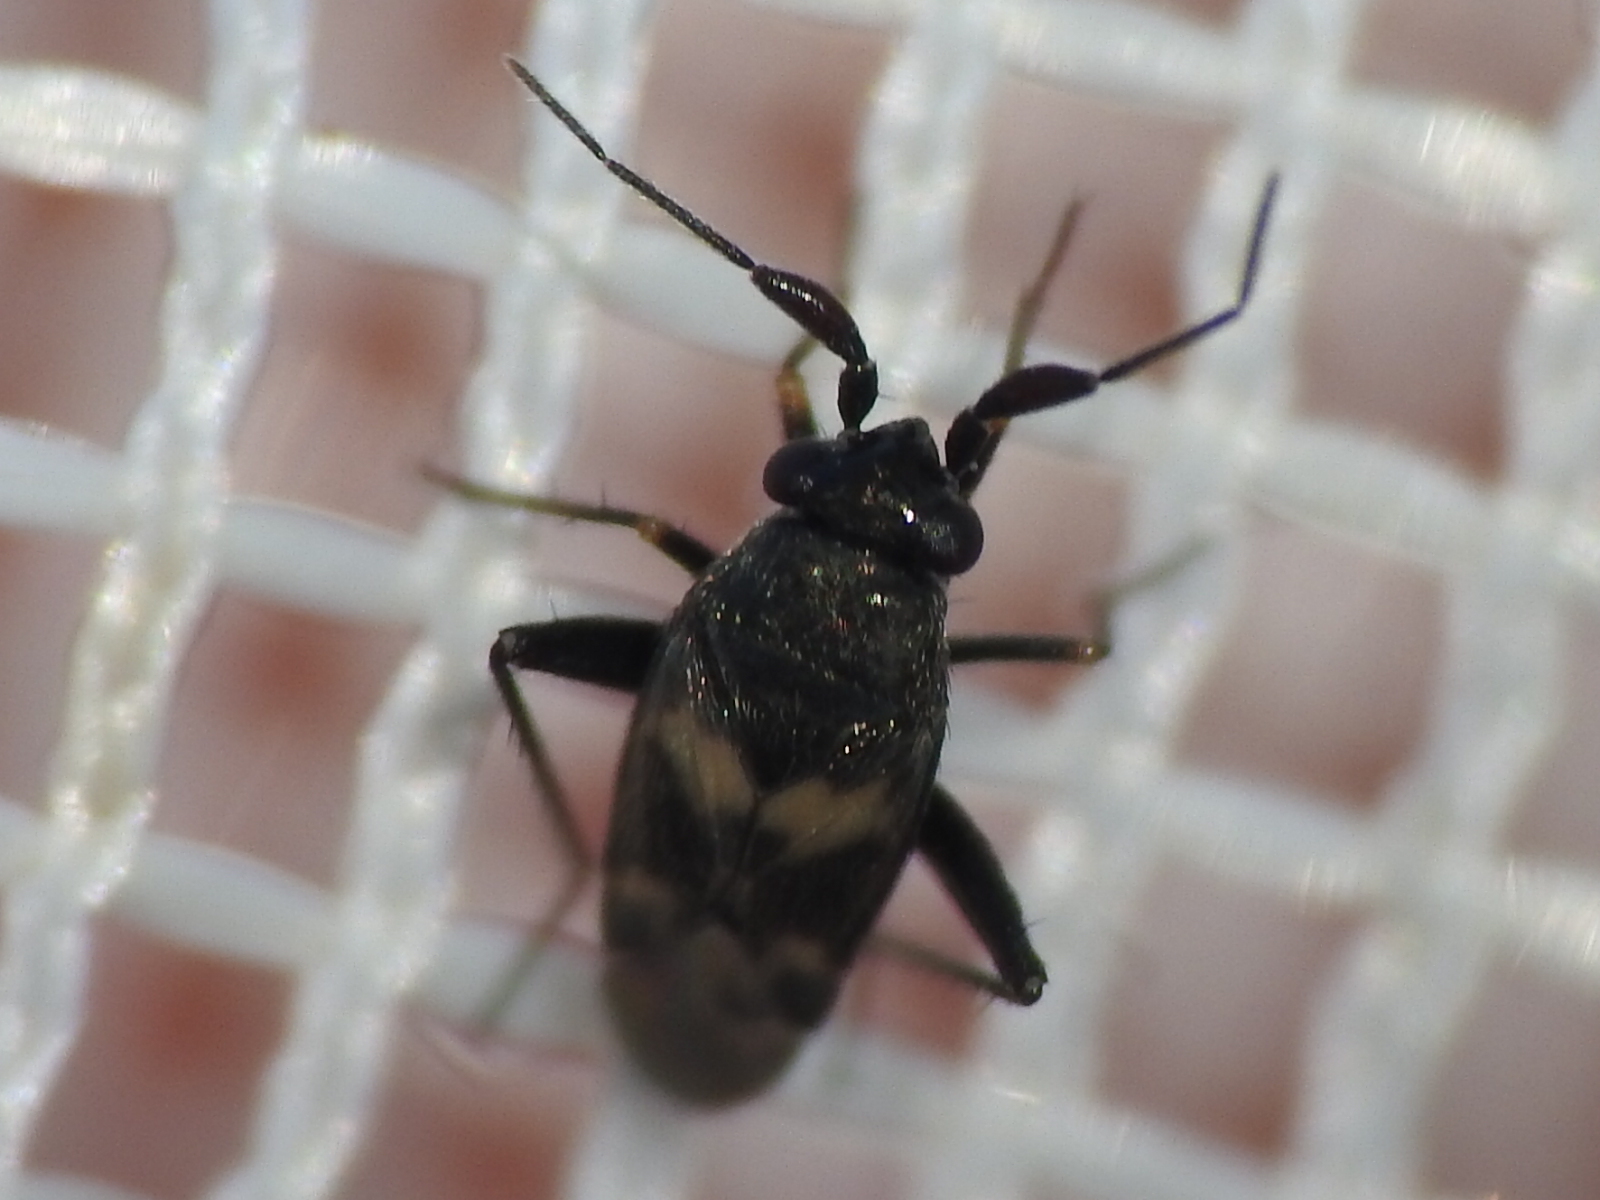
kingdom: Animalia
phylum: Arthropoda
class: Insecta
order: Hemiptera
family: Miridae
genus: Spanagonicus
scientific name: Spanagonicus albofasciatus
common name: Whitemarked fleahopper
